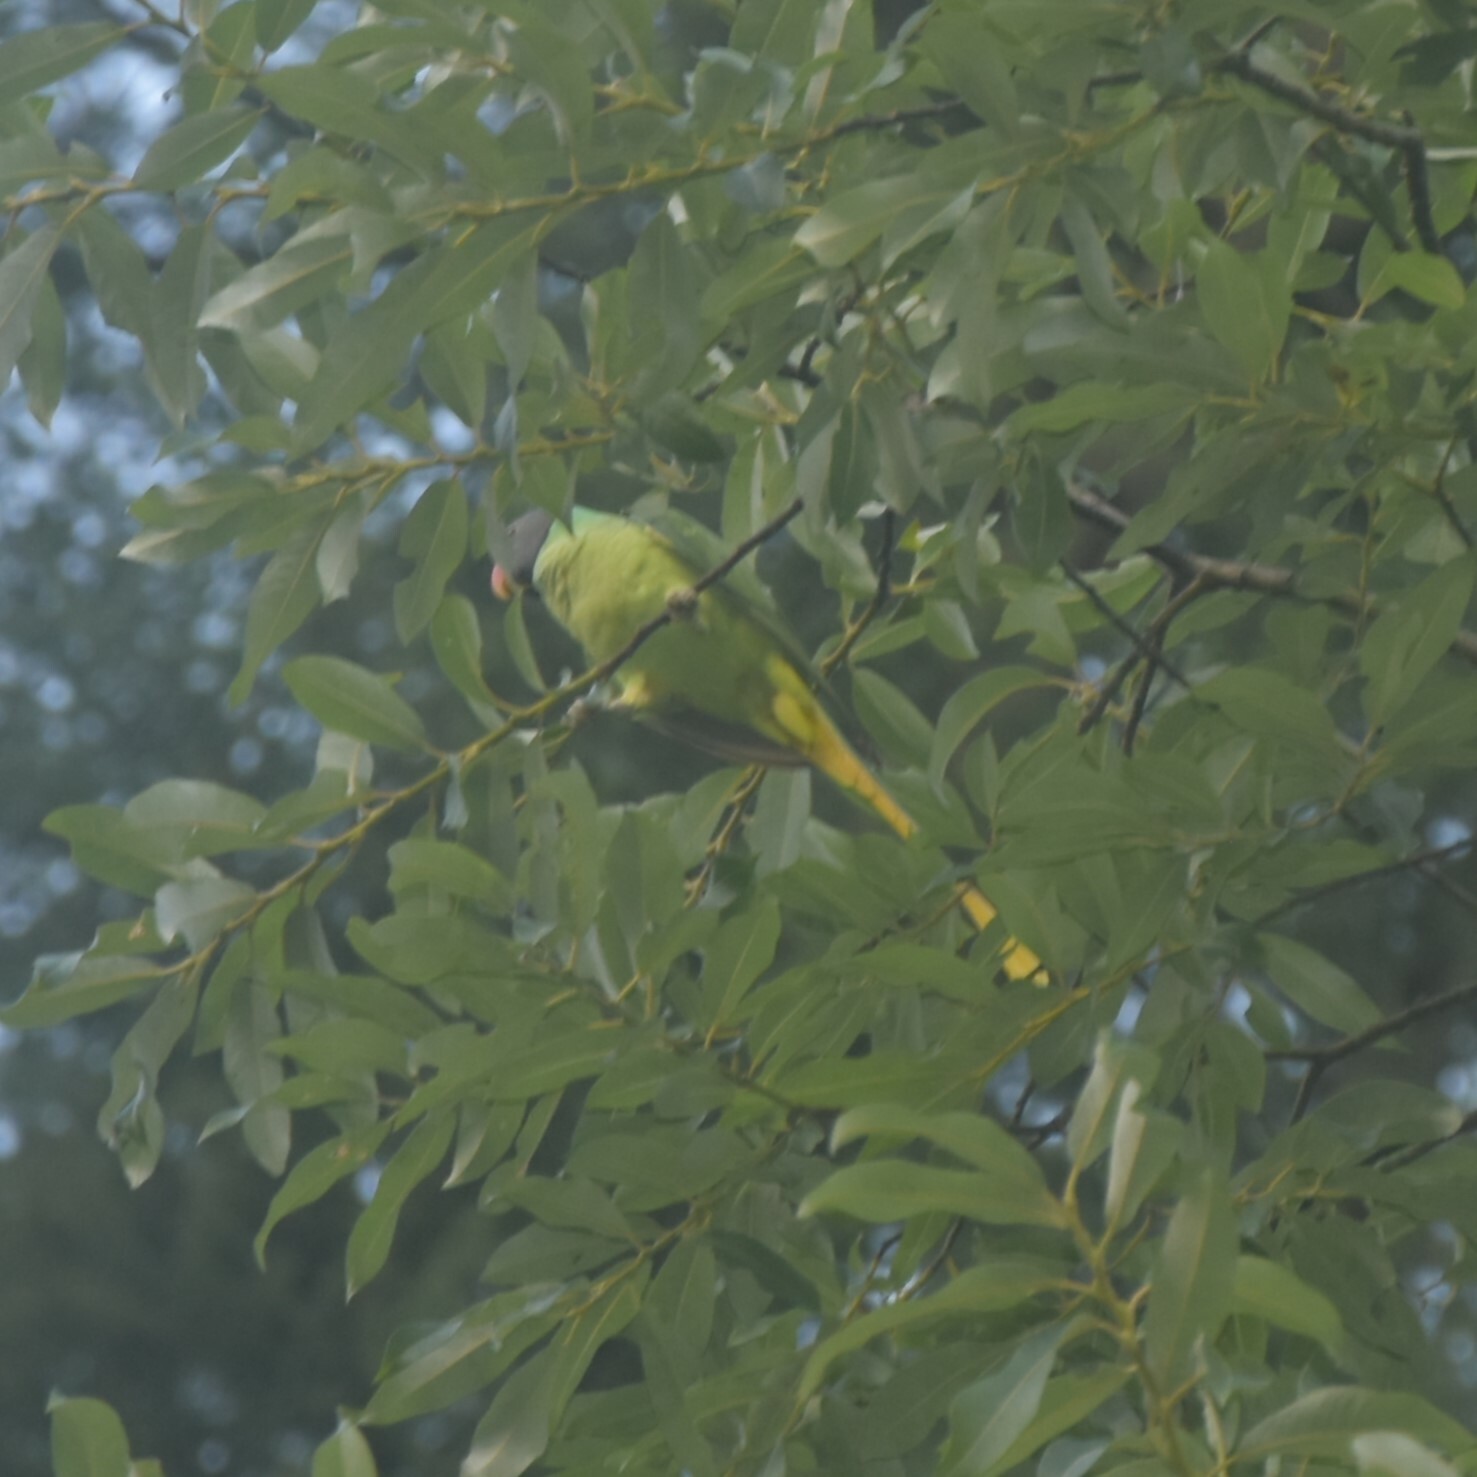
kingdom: Animalia
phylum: Chordata
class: Aves
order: Psittaciformes
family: Psittacidae
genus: Psittacula
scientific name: Psittacula himalayana
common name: Slaty-headed parakeet
